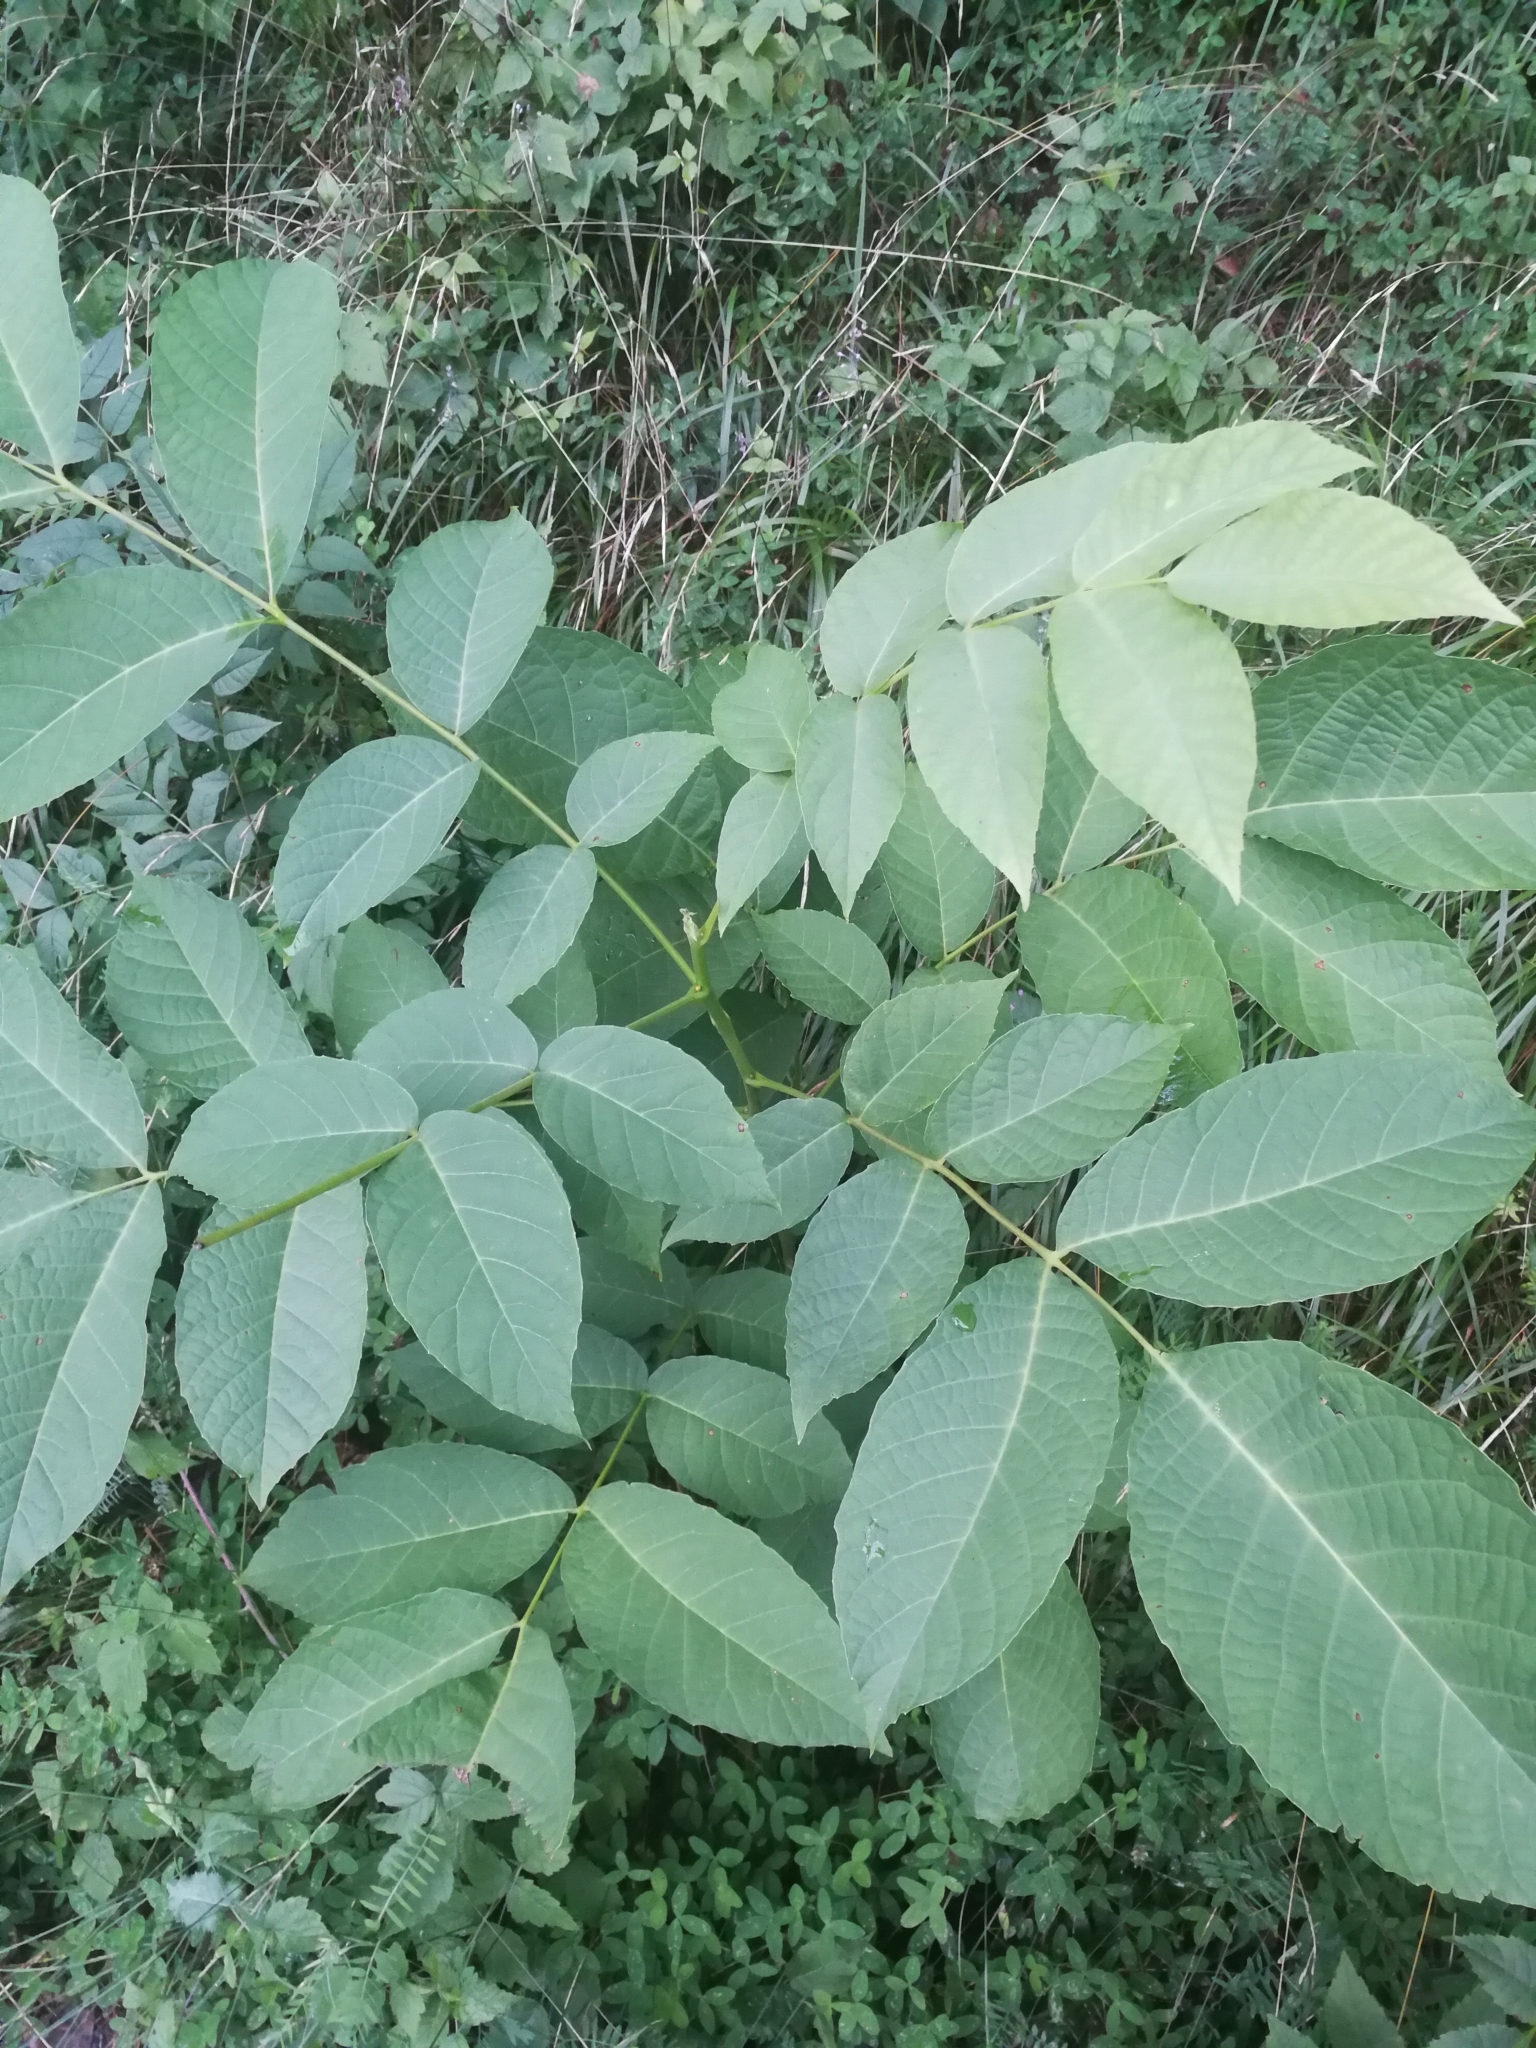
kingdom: Plantae
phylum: Tracheophyta
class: Magnoliopsida
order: Fagales
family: Juglandaceae
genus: Juglans
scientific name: Juglans regia
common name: Walnut
